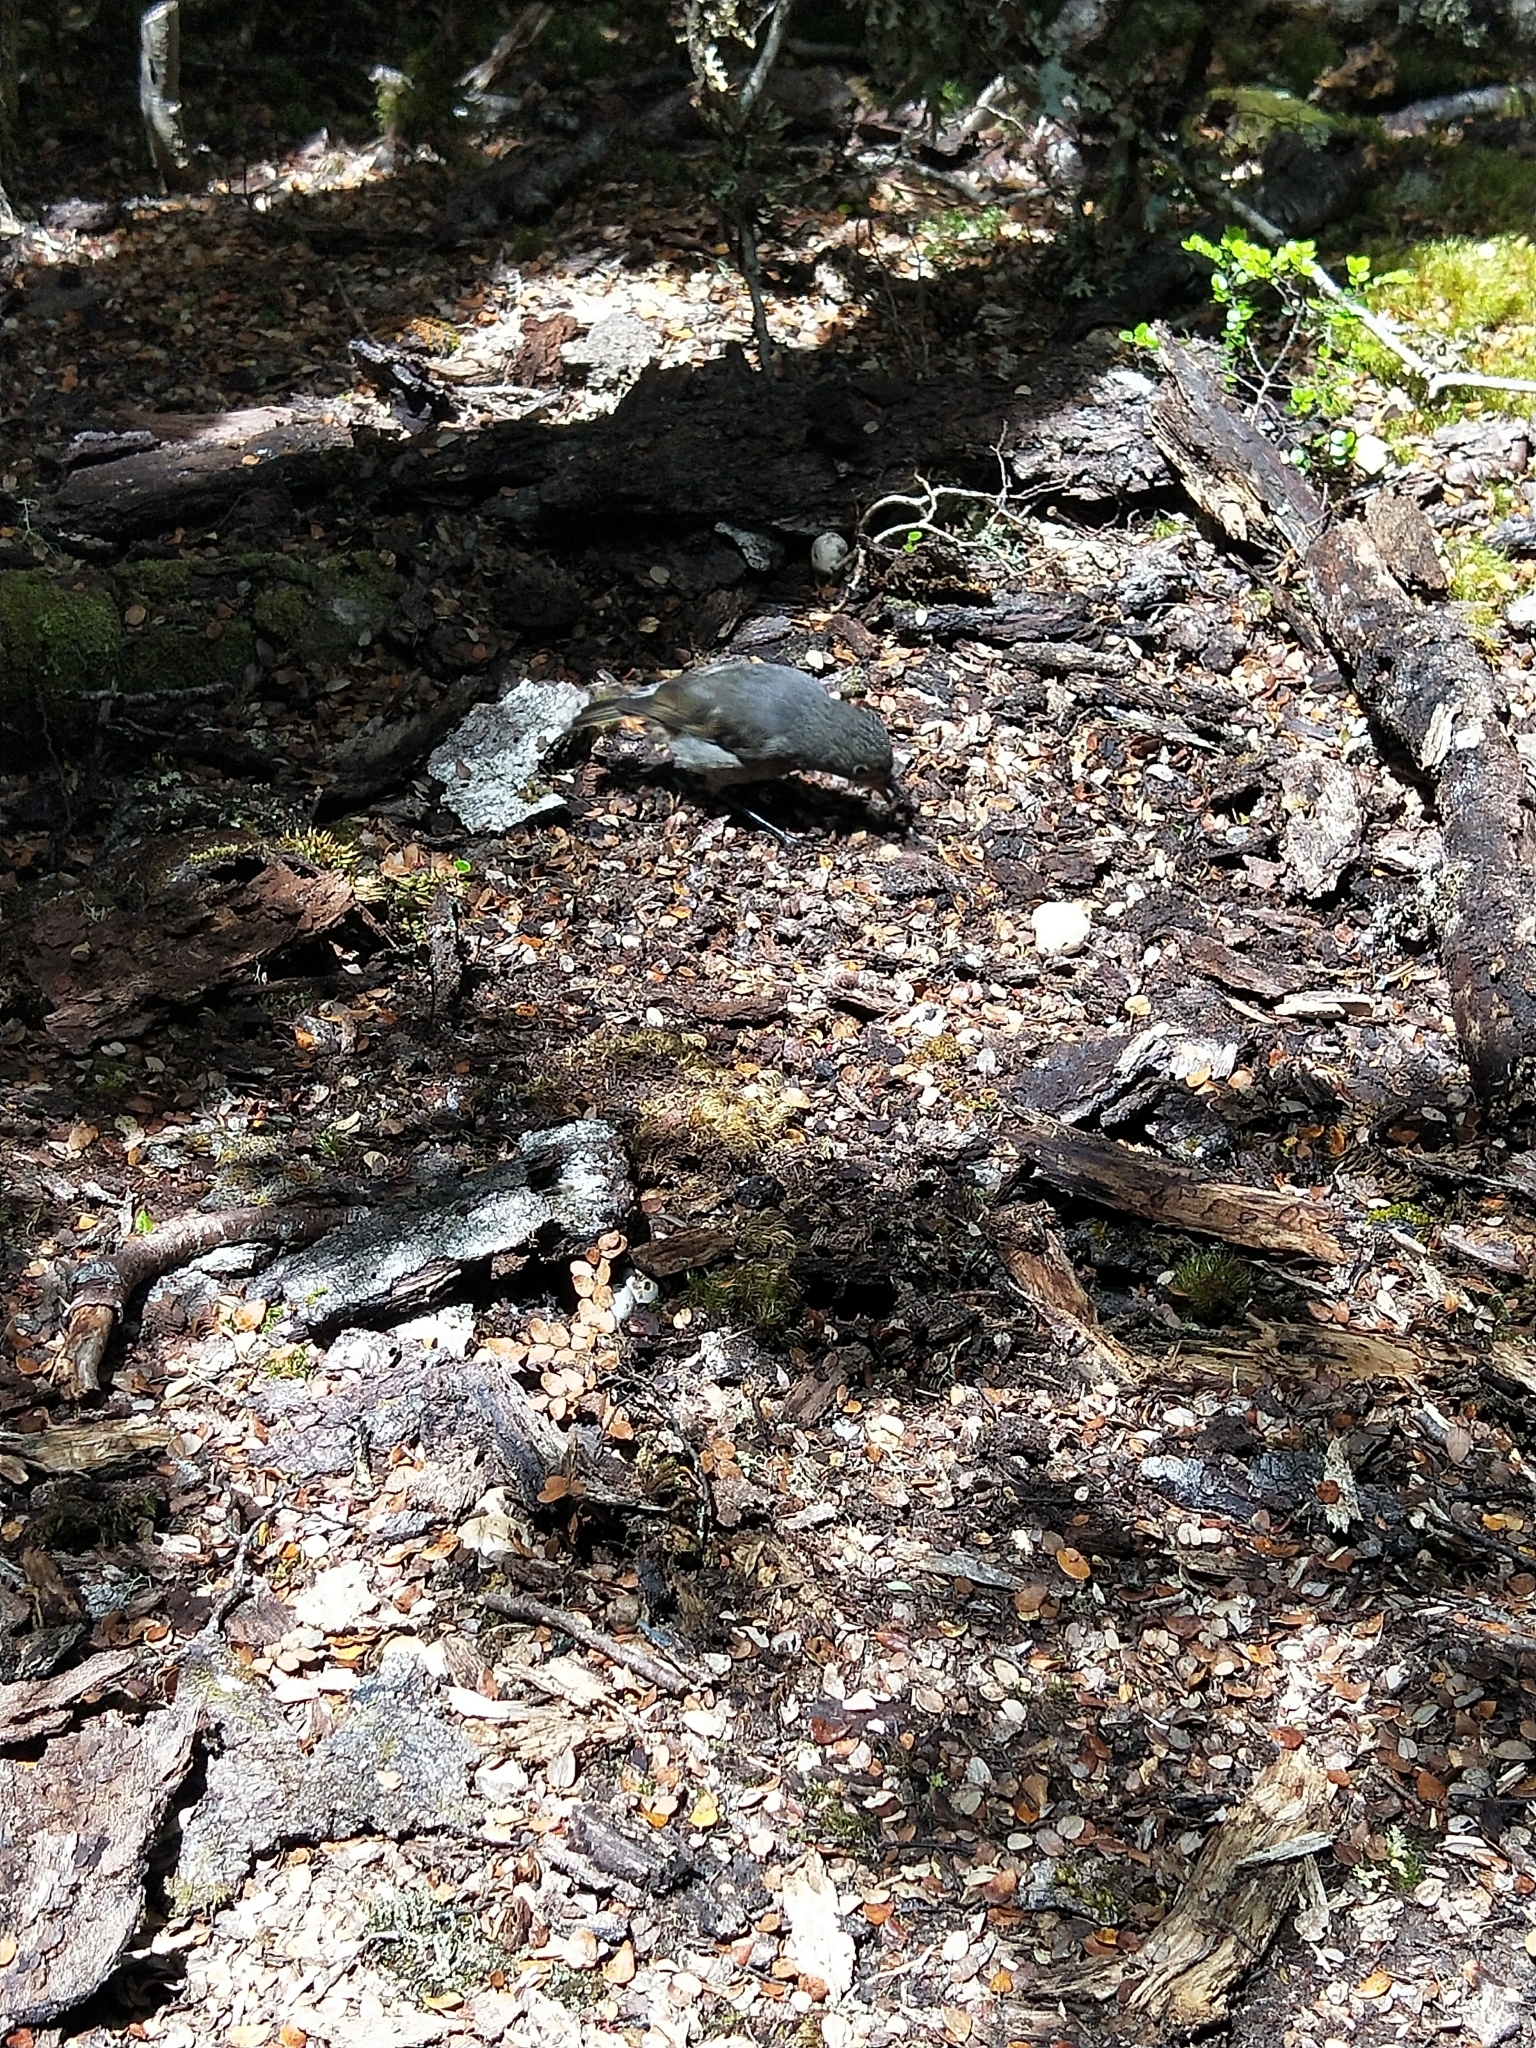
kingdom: Animalia
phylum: Chordata
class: Aves
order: Passeriformes
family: Petroicidae
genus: Petroica
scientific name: Petroica australis
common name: New zealand robin
